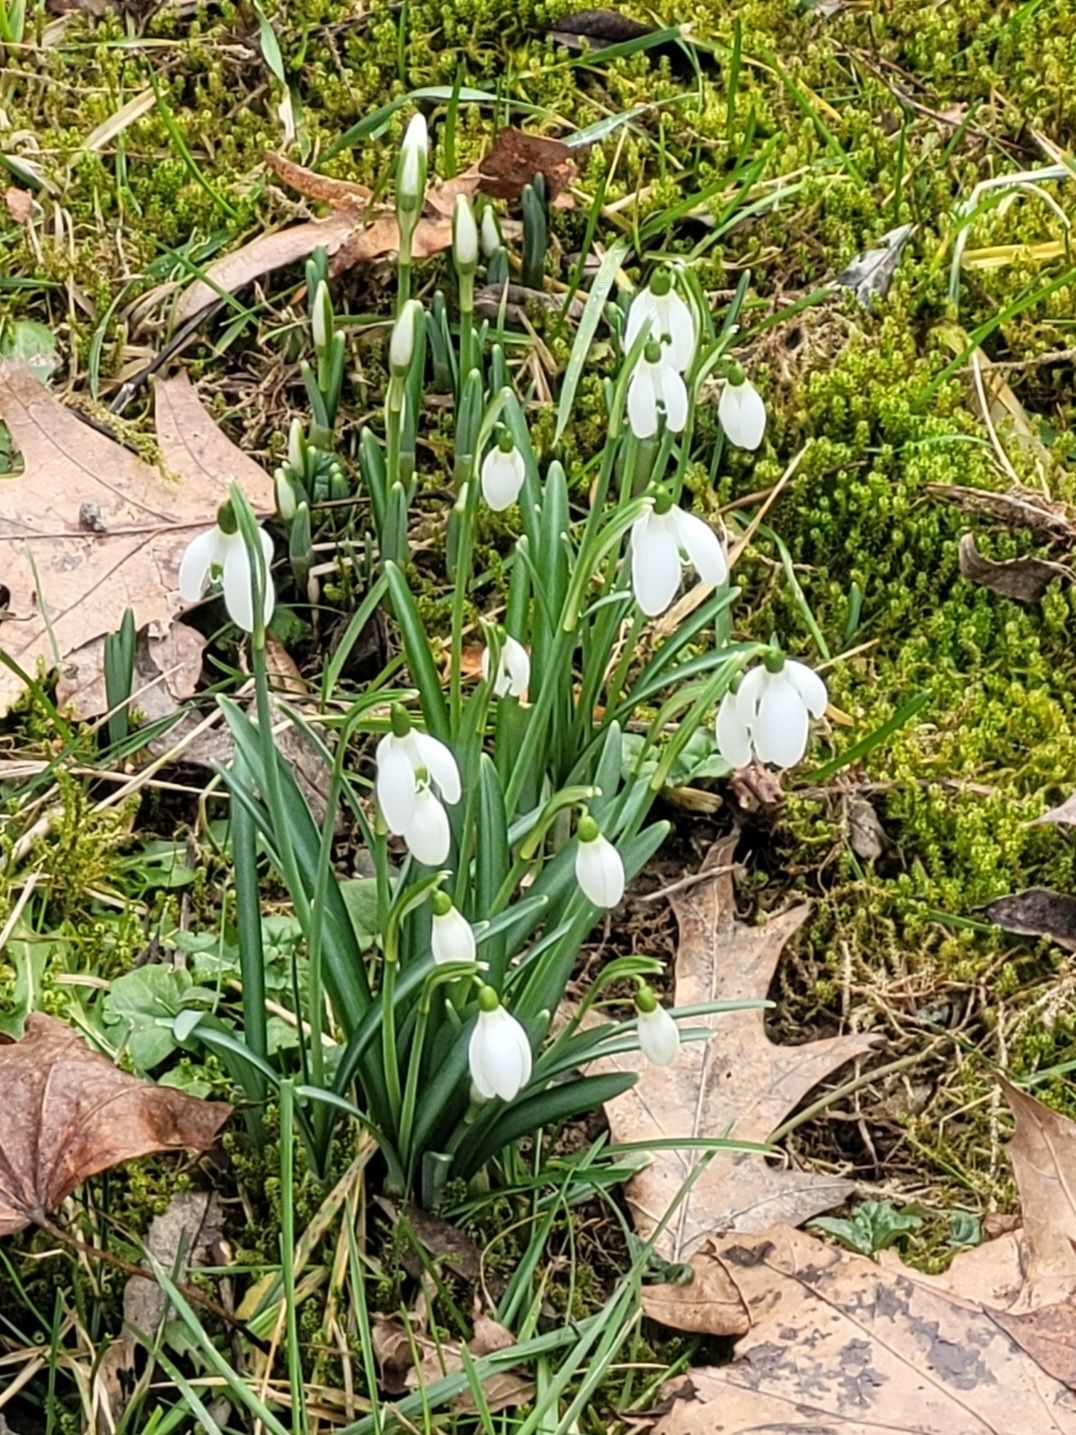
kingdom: Plantae
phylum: Tracheophyta
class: Liliopsida
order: Asparagales
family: Amaryllidaceae
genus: Galanthus
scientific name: Galanthus nivalis
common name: Snowdrop
